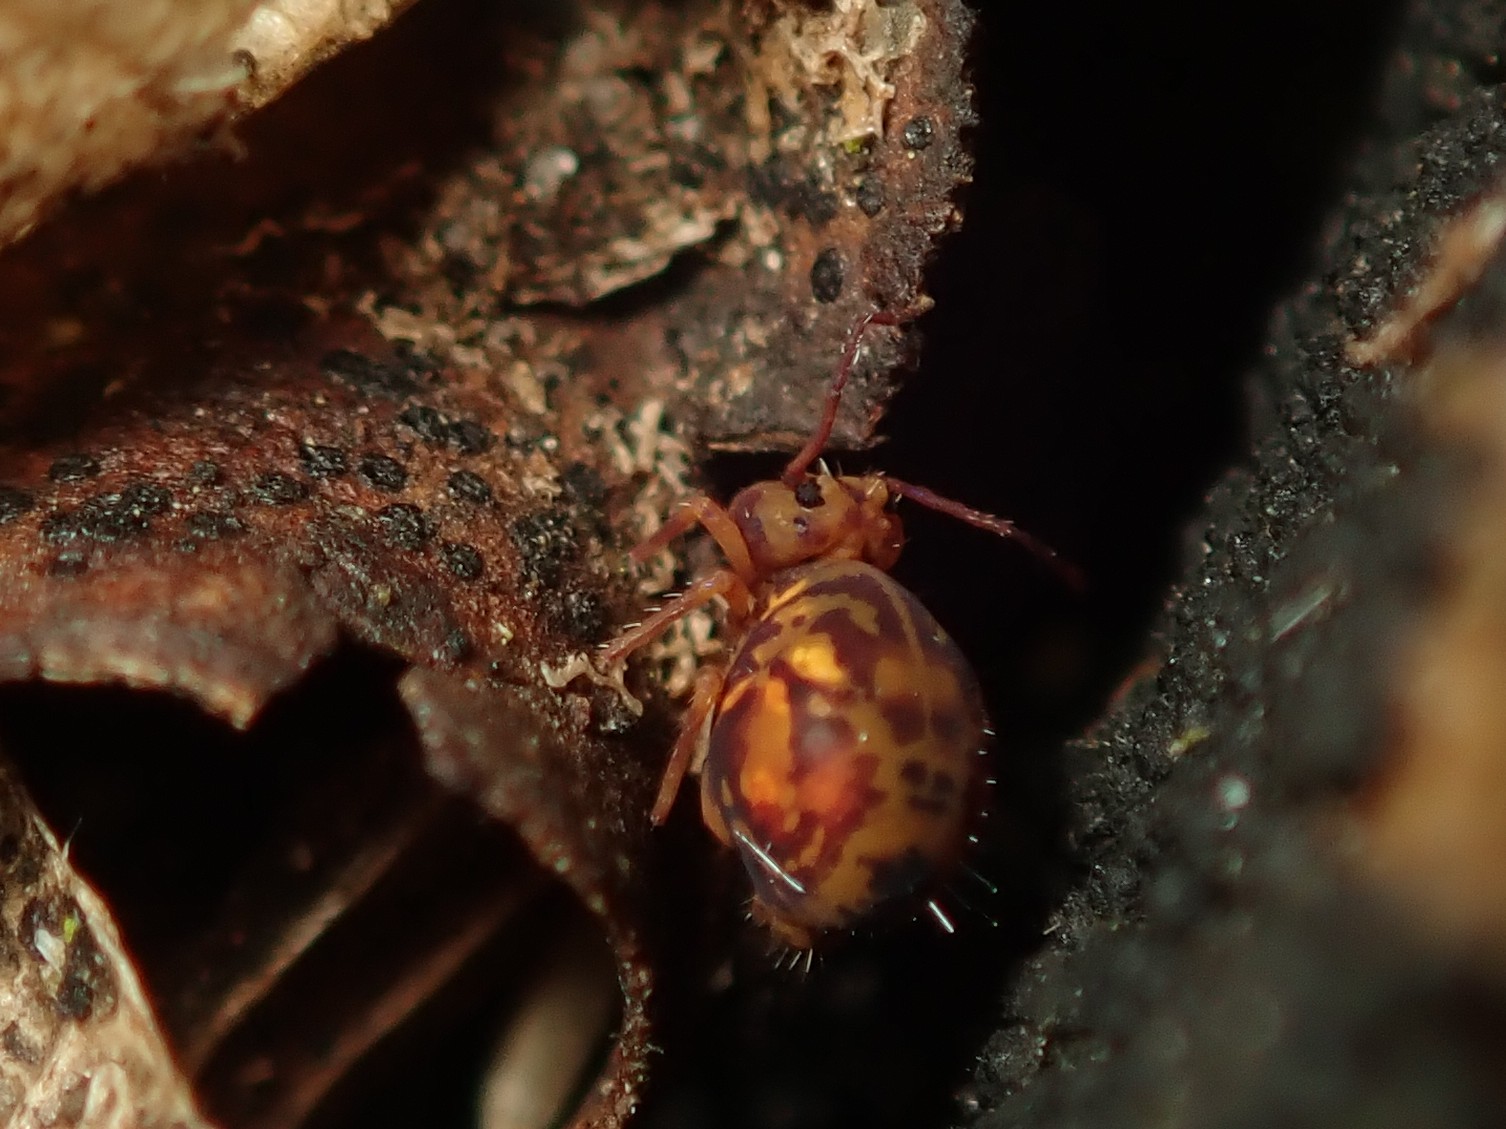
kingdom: Animalia
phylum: Arthropoda
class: Collembola
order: Symphypleona
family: Dicyrtomidae
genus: Dicyrtomina
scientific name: Dicyrtomina ornata
